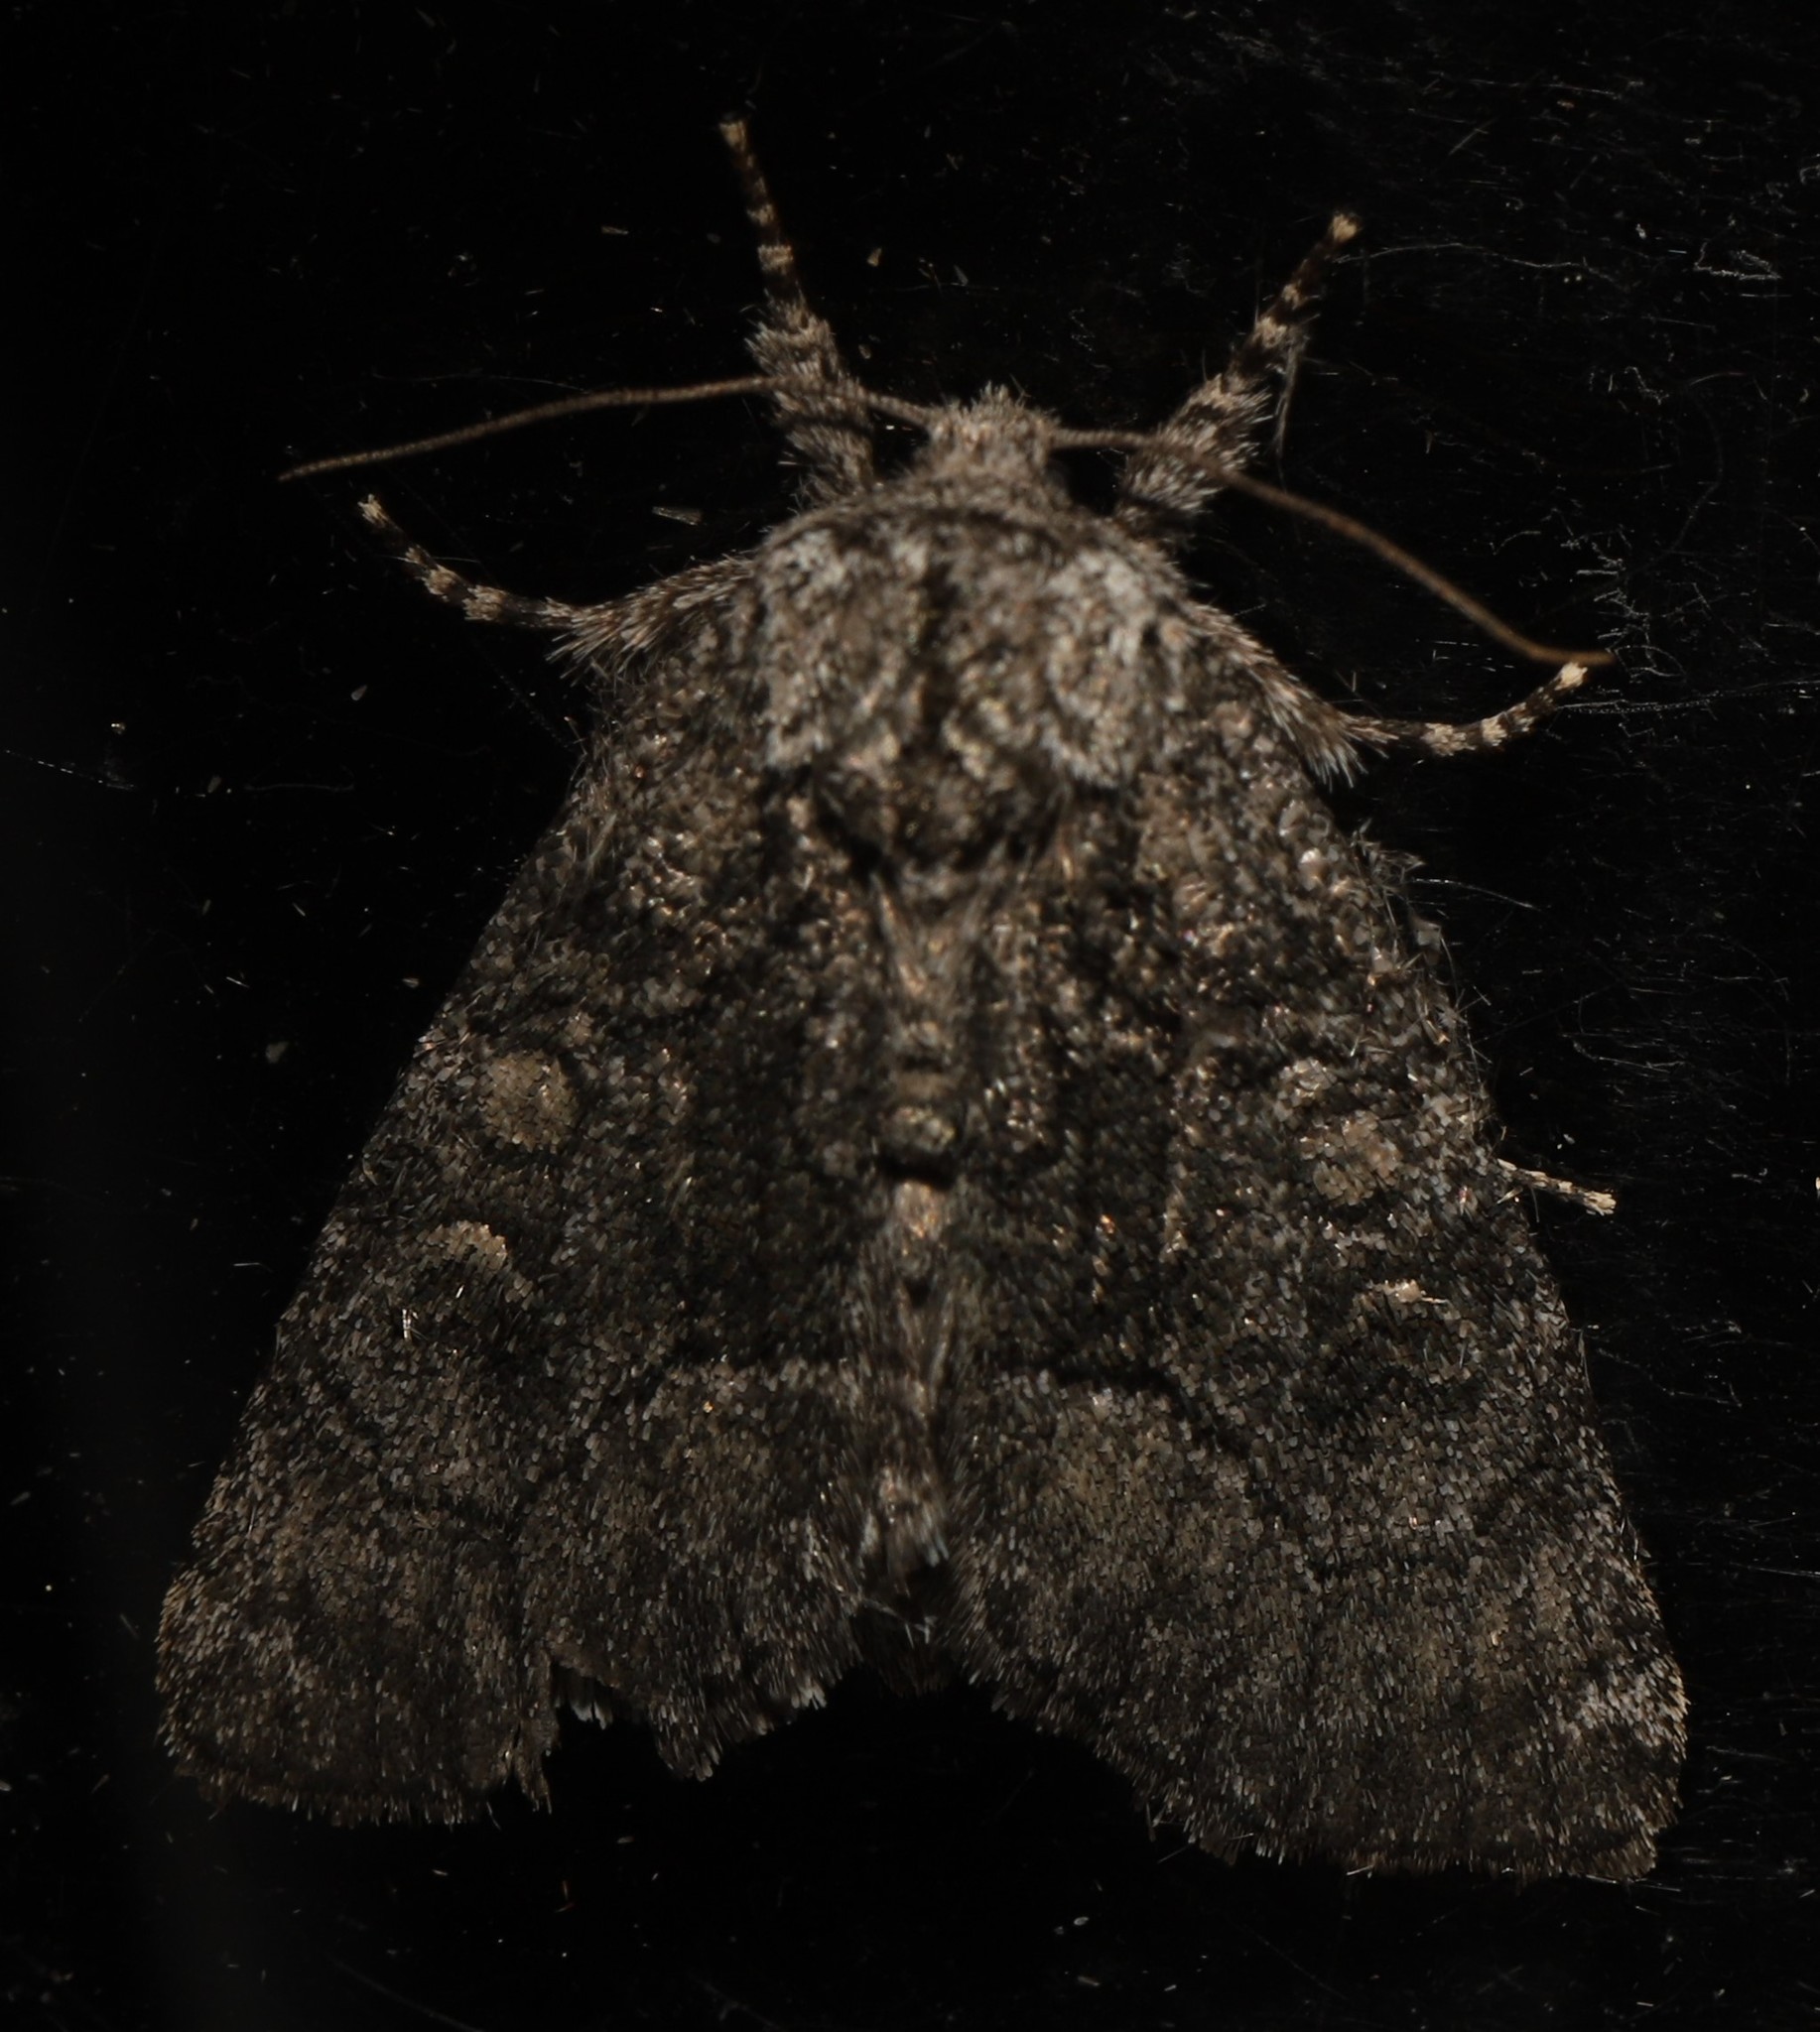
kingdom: Animalia
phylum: Arthropoda
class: Insecta
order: Lepidoptera
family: Noctuidae
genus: Raphia
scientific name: Raphia frater
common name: Brother
